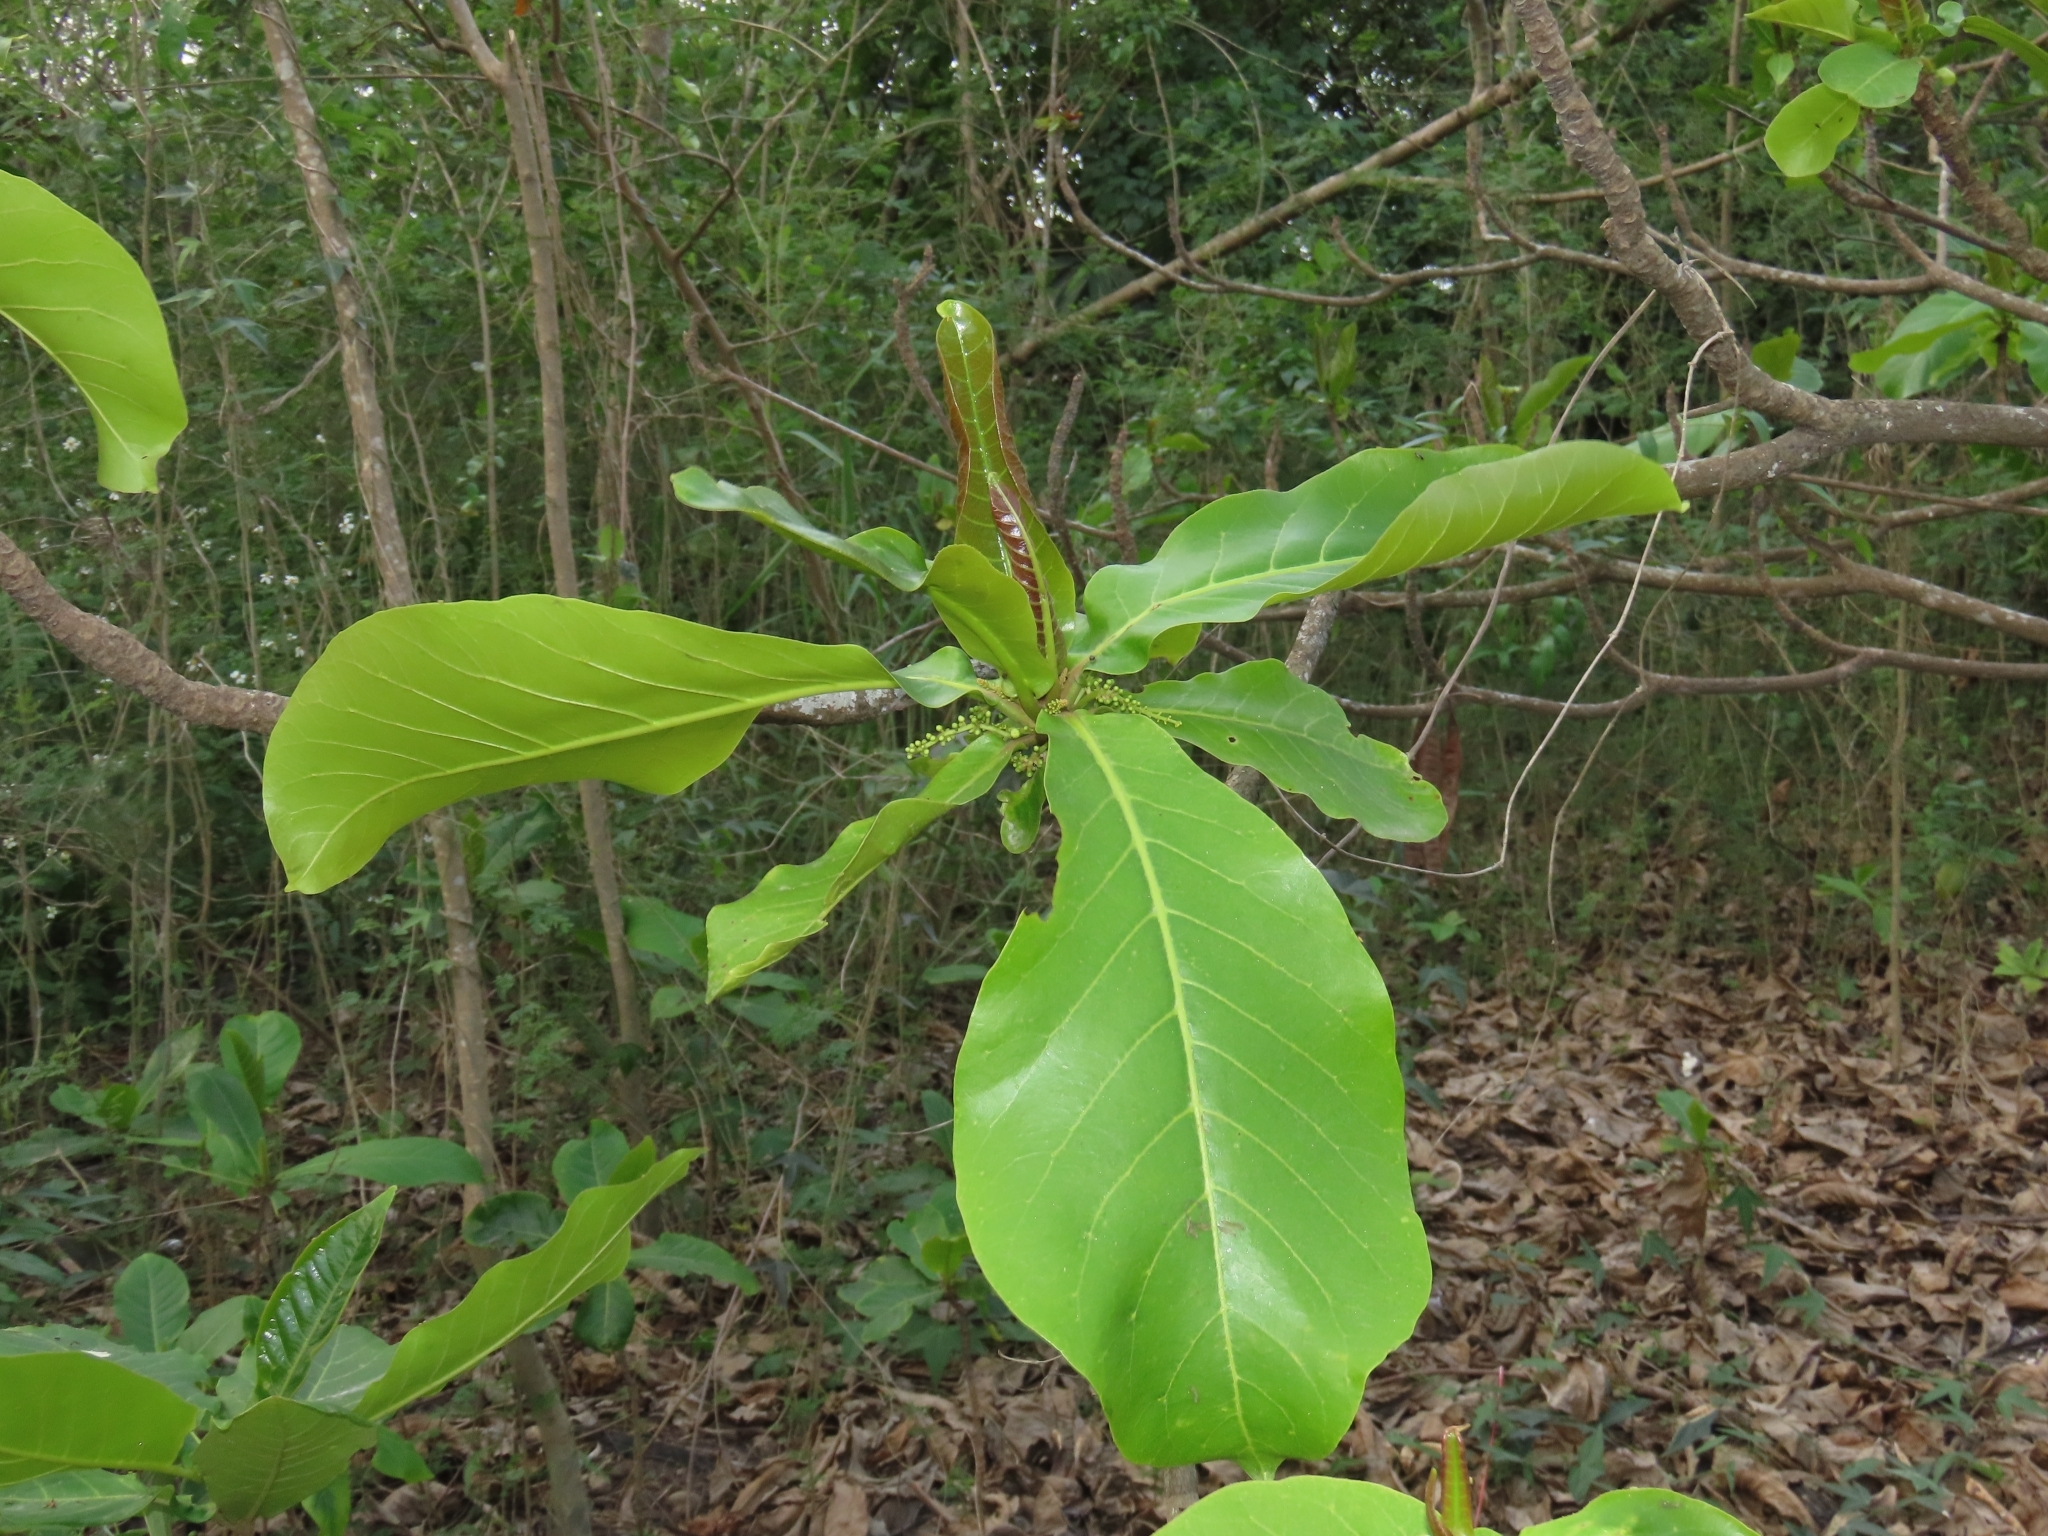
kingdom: Plantae
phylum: Tracheophyta
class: Magnoliopsida
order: Myrtales
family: Combretaceae
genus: Terminalia
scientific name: Terminalia catappa
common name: Tropical almond
